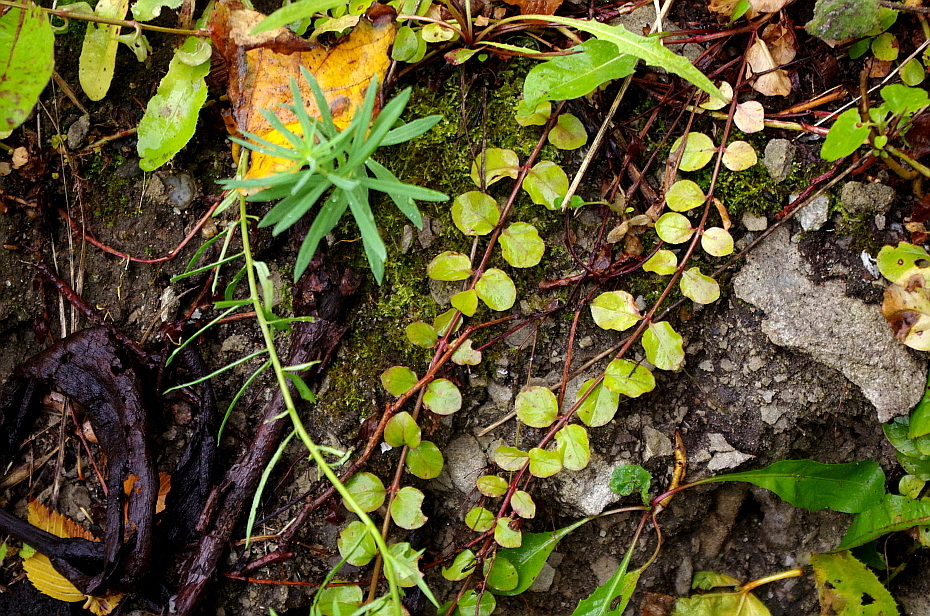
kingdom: Plantae
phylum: Tracheophyta
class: Magnoliopsida
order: Ericales
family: Primulaceae
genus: Lysimachia
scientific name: Lysimachia nummularia
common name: Moneywort
